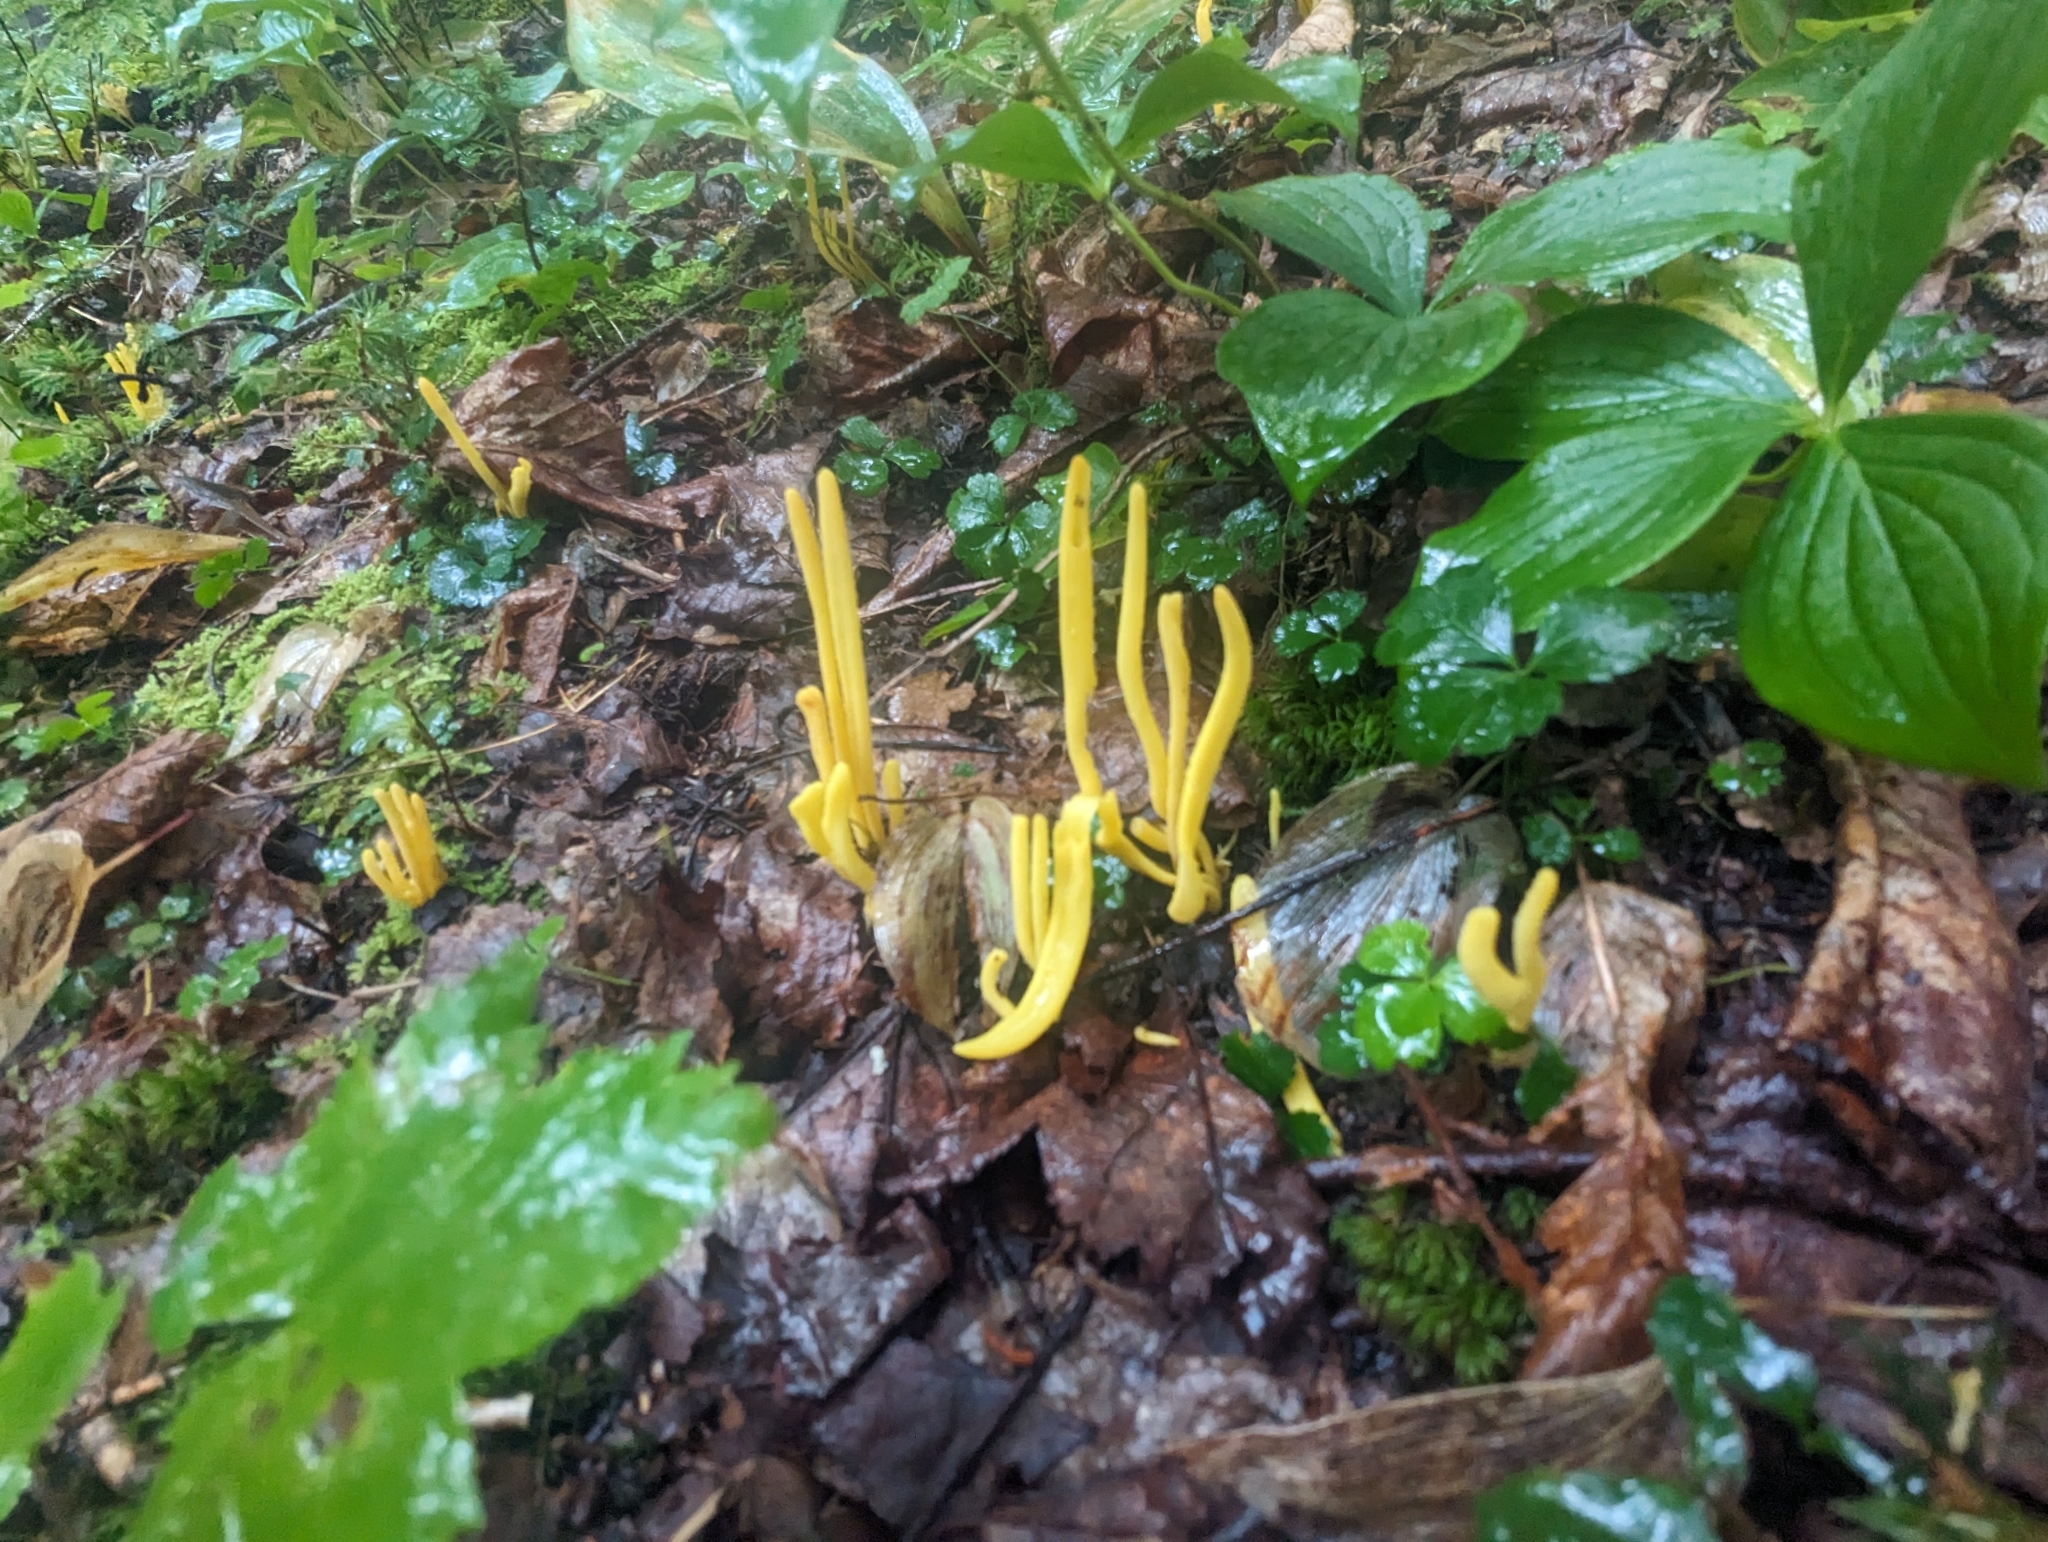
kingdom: Fungi
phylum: Basidiomycota
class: Agaricomycetes
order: Agaricales
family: Clavariaceae
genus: Clavulinopsis
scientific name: Clavulinopsis fusiformis
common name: Golden spindles
